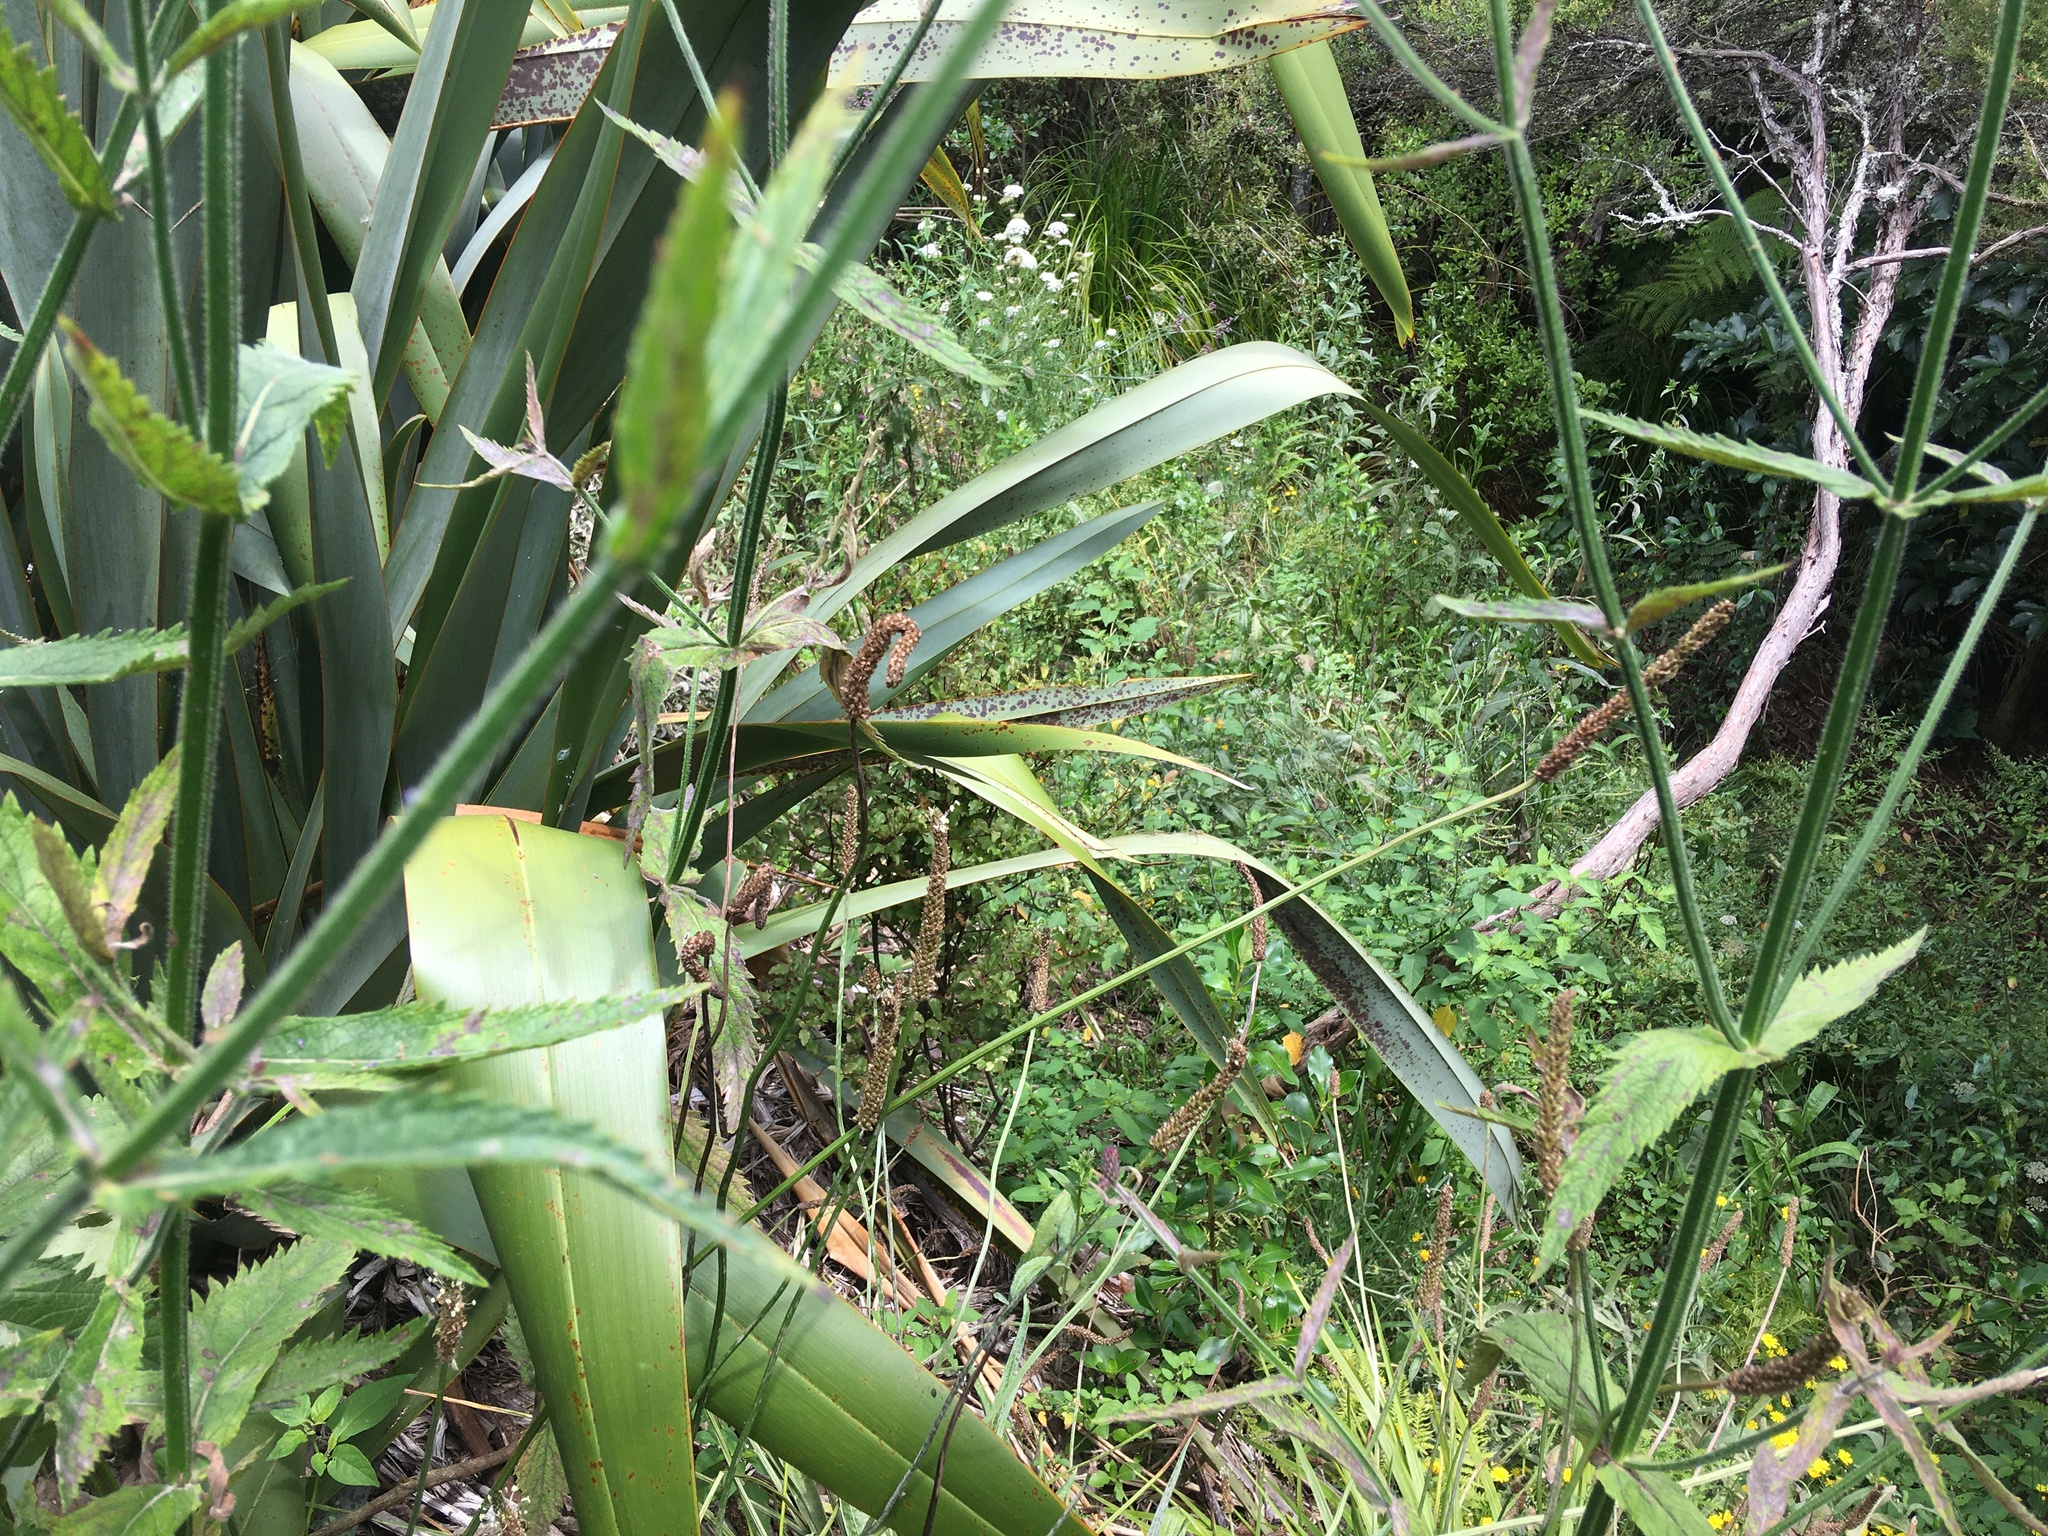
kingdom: Plantae
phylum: Tracheophyta
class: Magnoliopsida
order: Lamiales
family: Plantaginaceae
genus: Plantago
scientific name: Plantago lanceolata
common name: Ribwort plantain
